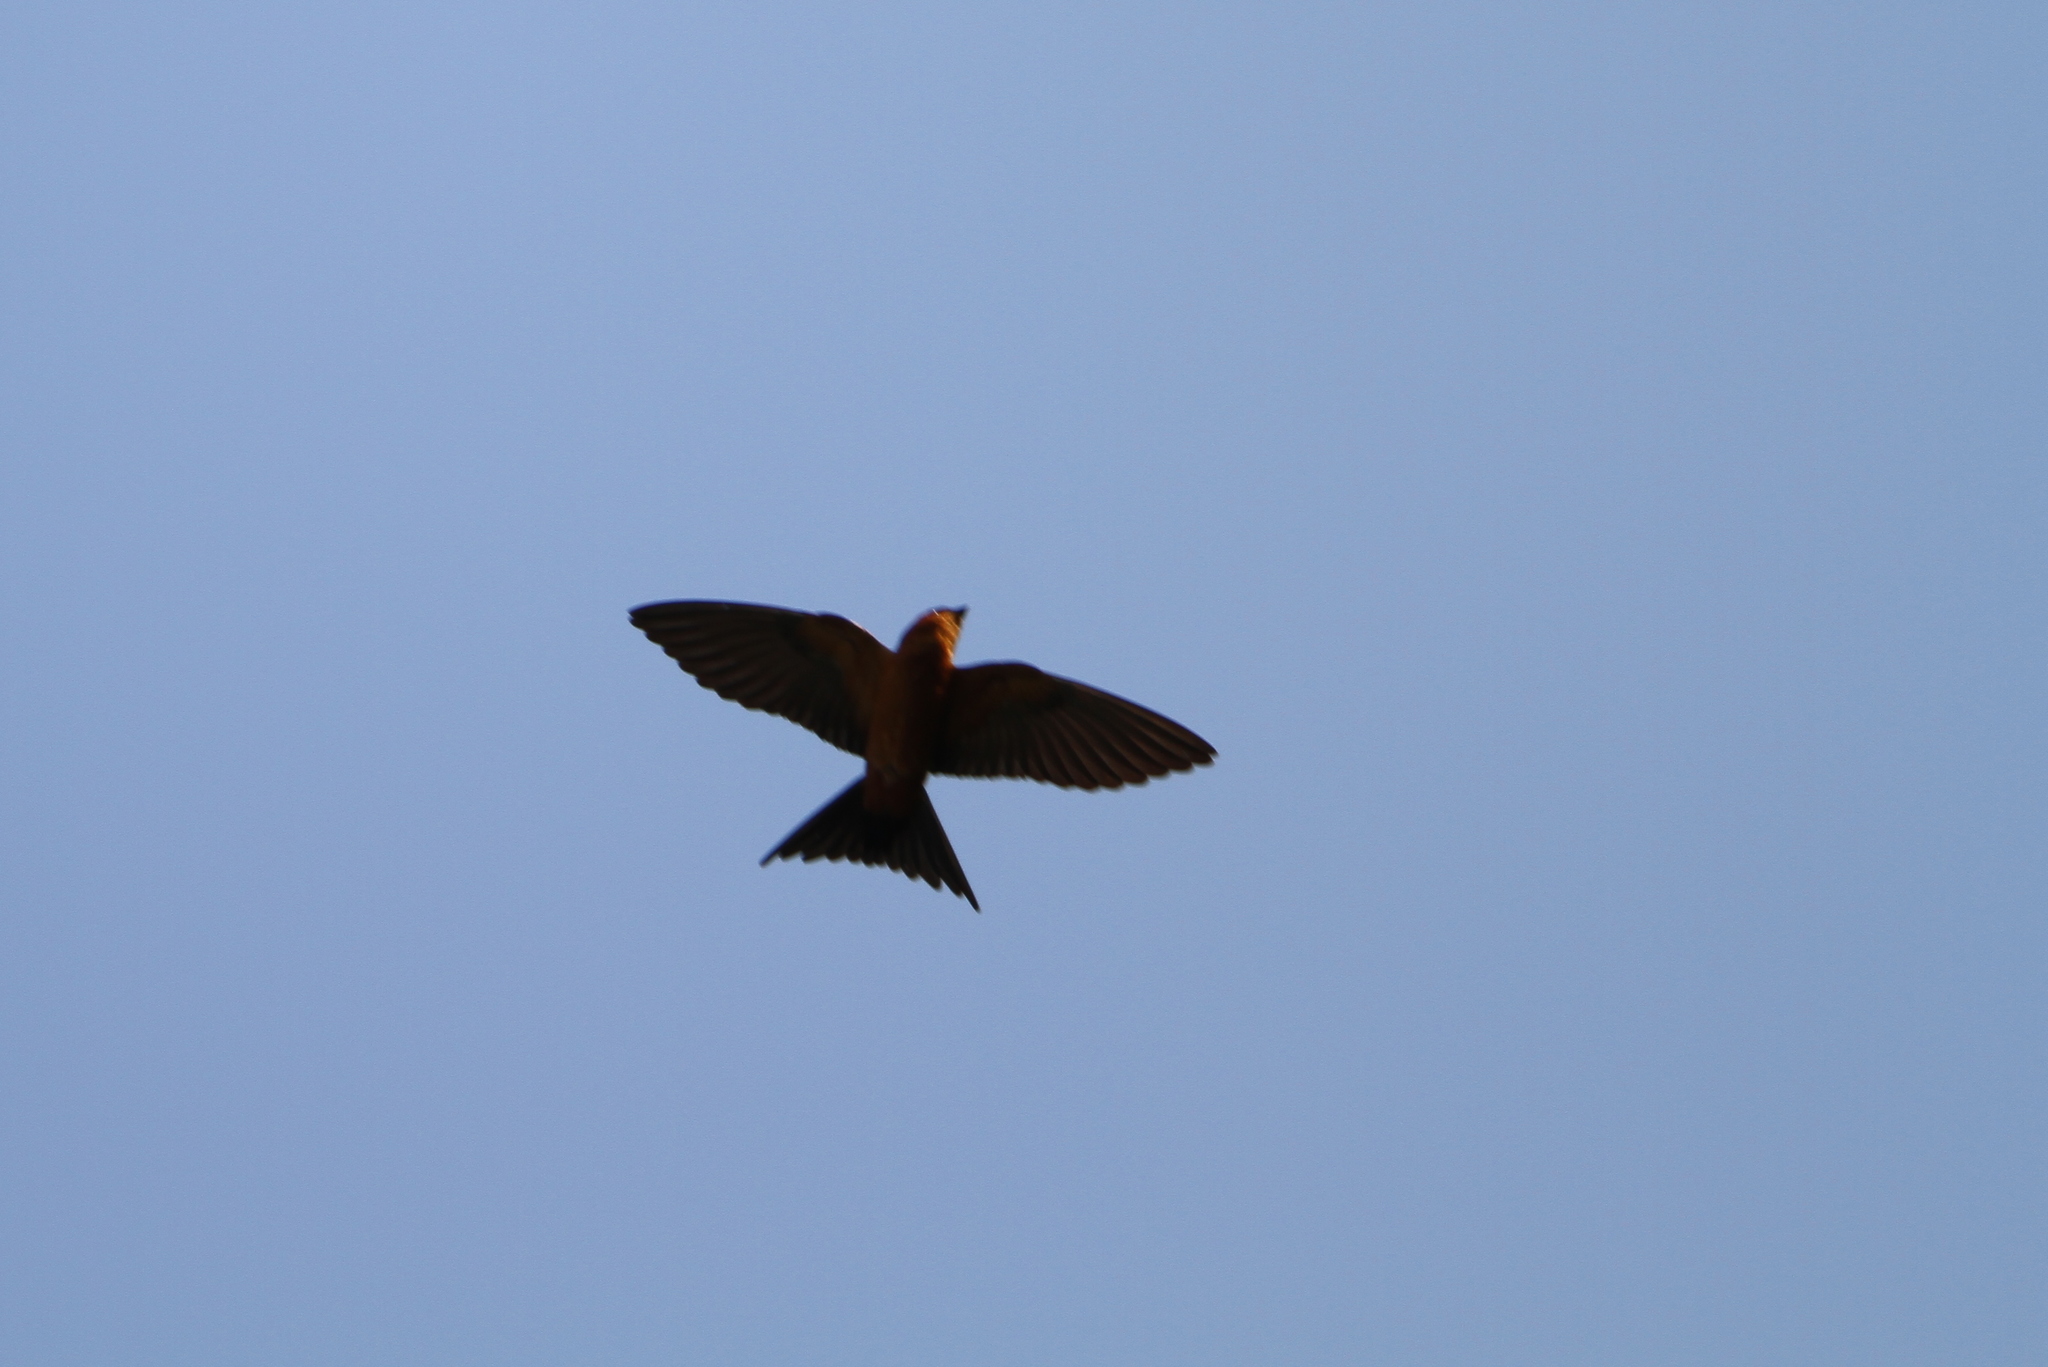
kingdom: Animalia
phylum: Chordata
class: Aves
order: Passeriformes
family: Hirundinidae
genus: Cecropis
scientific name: Cecropis hyperythra
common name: Sri lanka swallow
